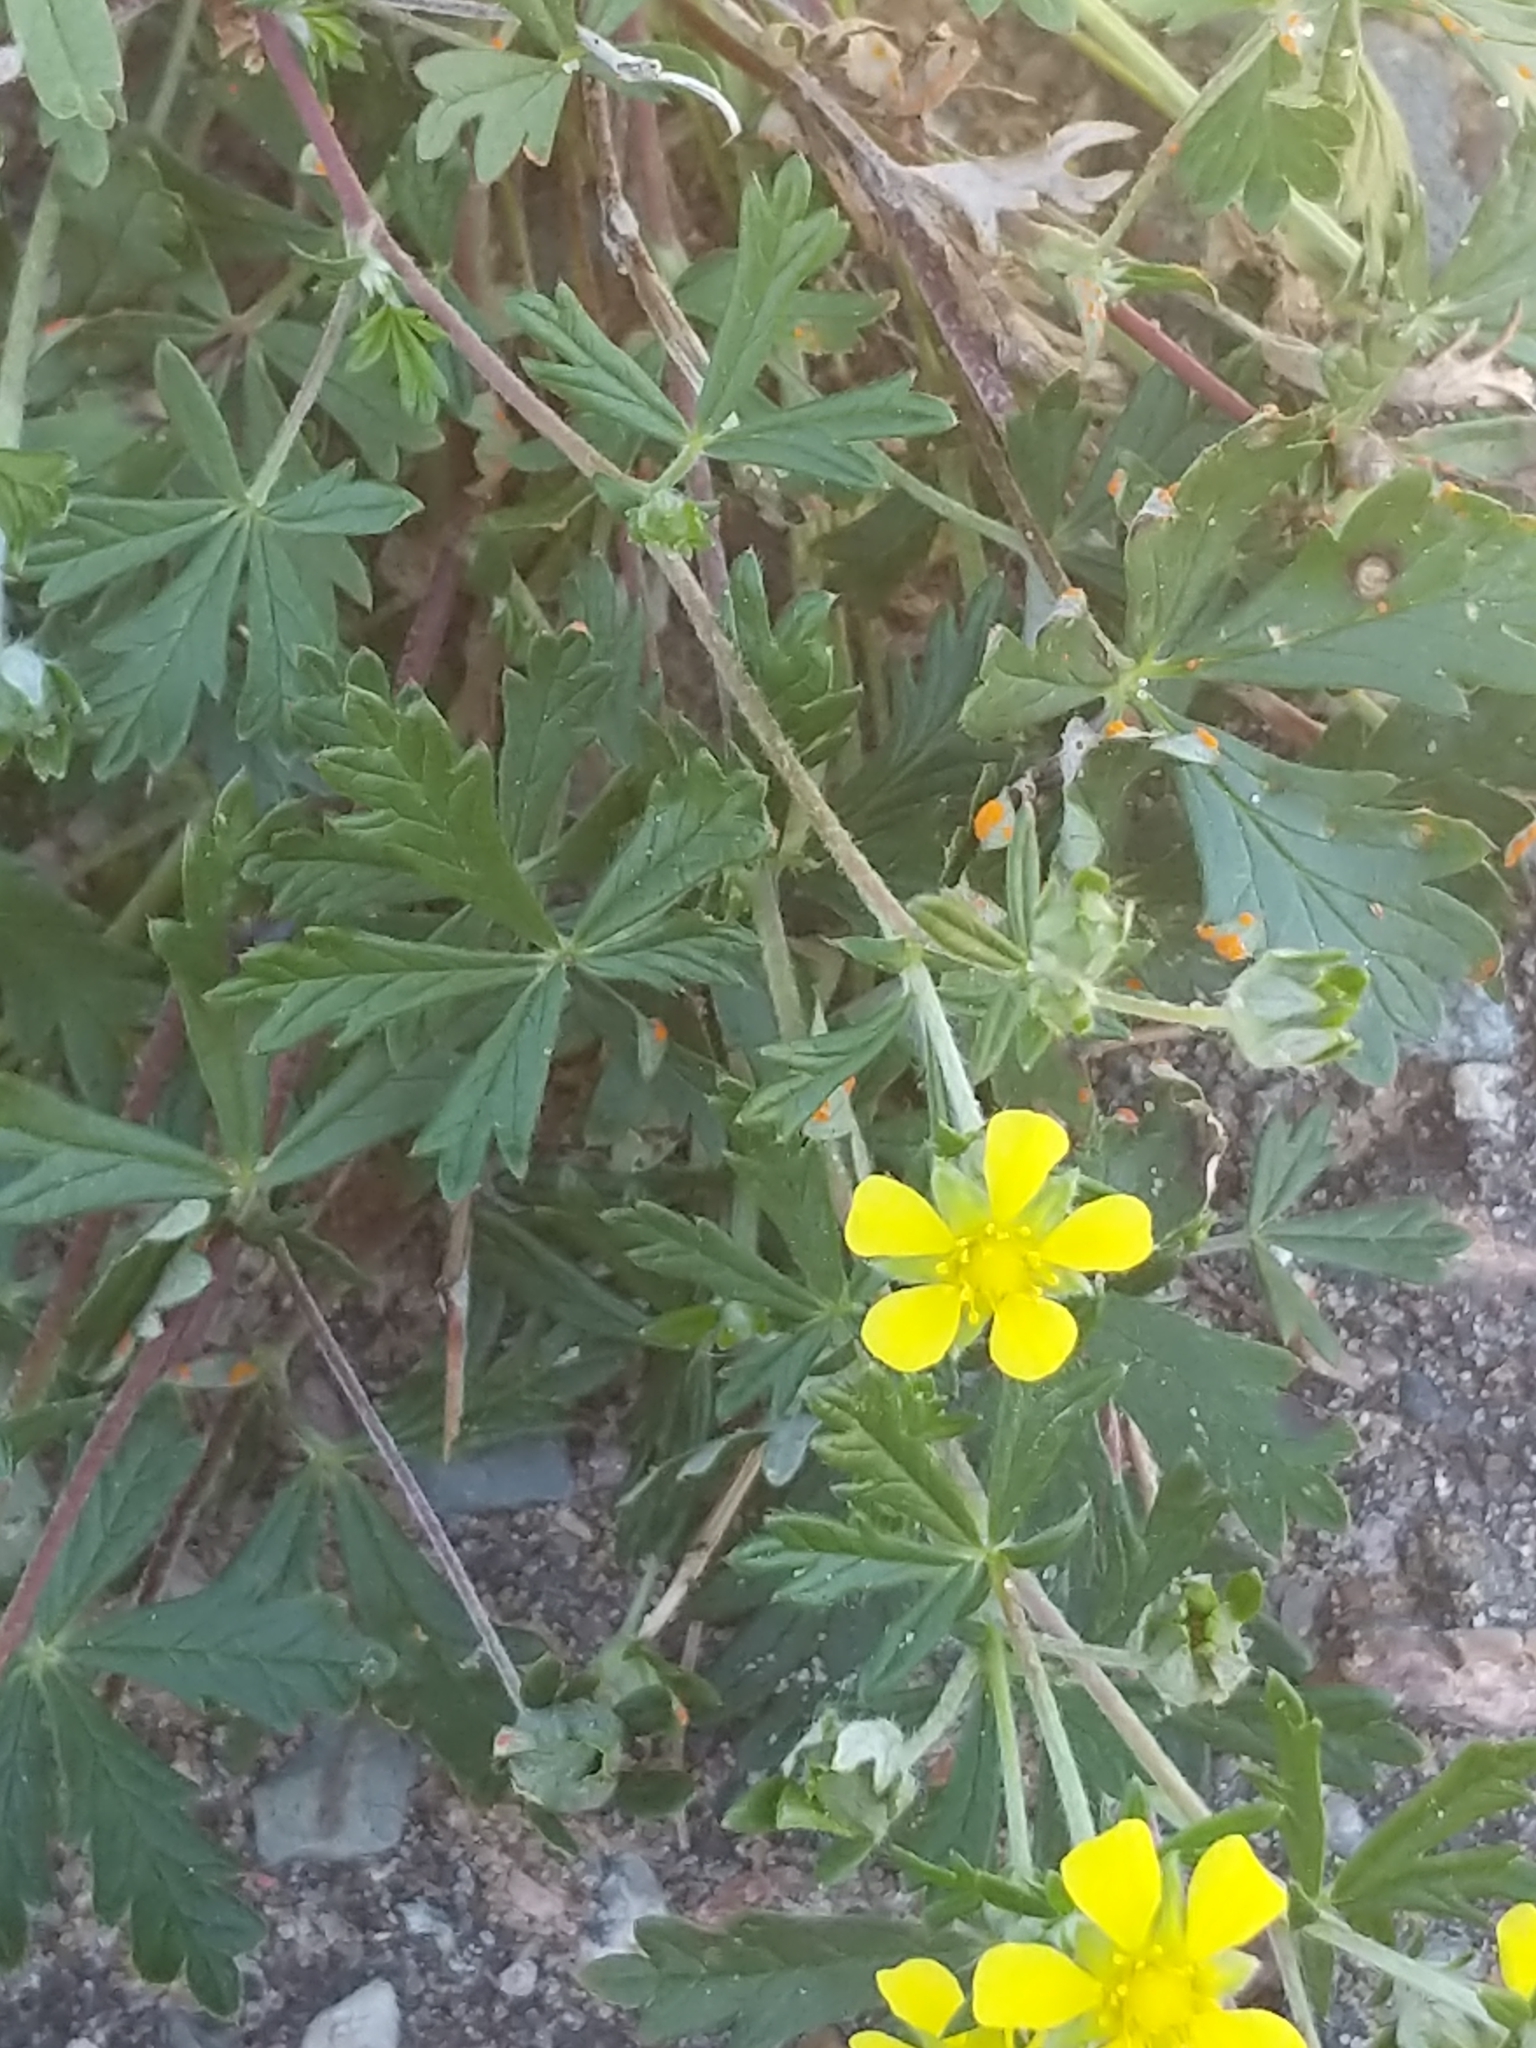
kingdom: Plantae
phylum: Tracheophyta
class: Magnoliopsida
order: Rosales
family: Rosaceae
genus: Potentilla
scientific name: Potentilla argentea
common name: Hoary cinquefoil
